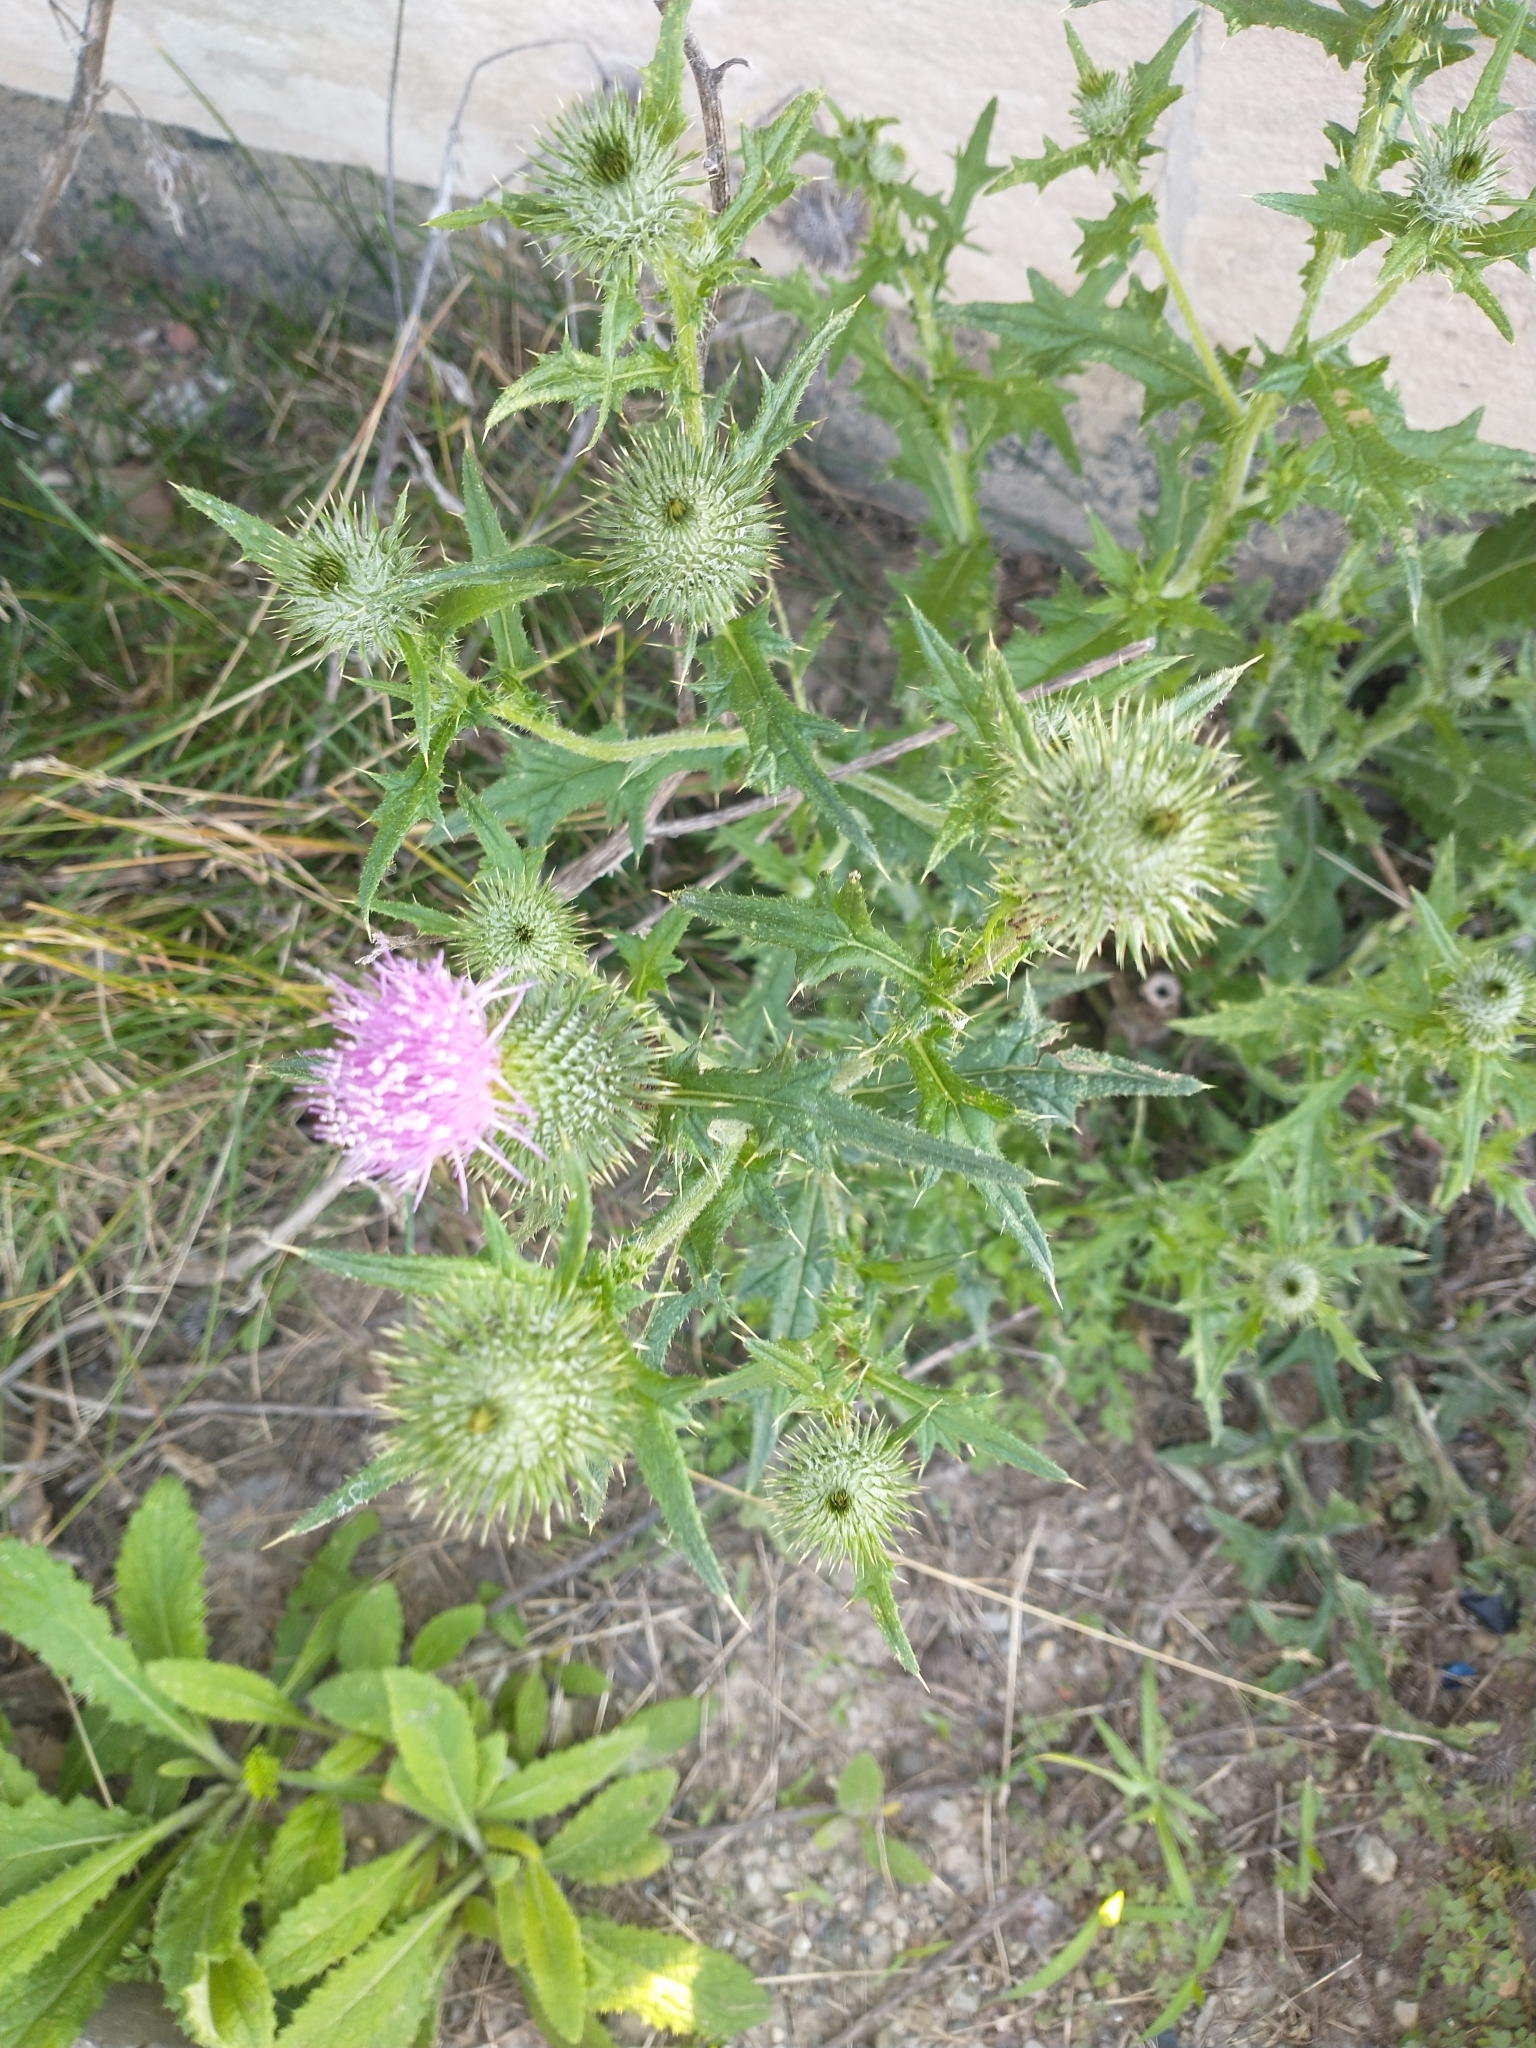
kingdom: Plantae
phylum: Tracheophyta
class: Magnoliopsida
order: Asterales
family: Asteraceae
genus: Cirsium
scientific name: Cirsium vulgare
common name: Bull thistle
